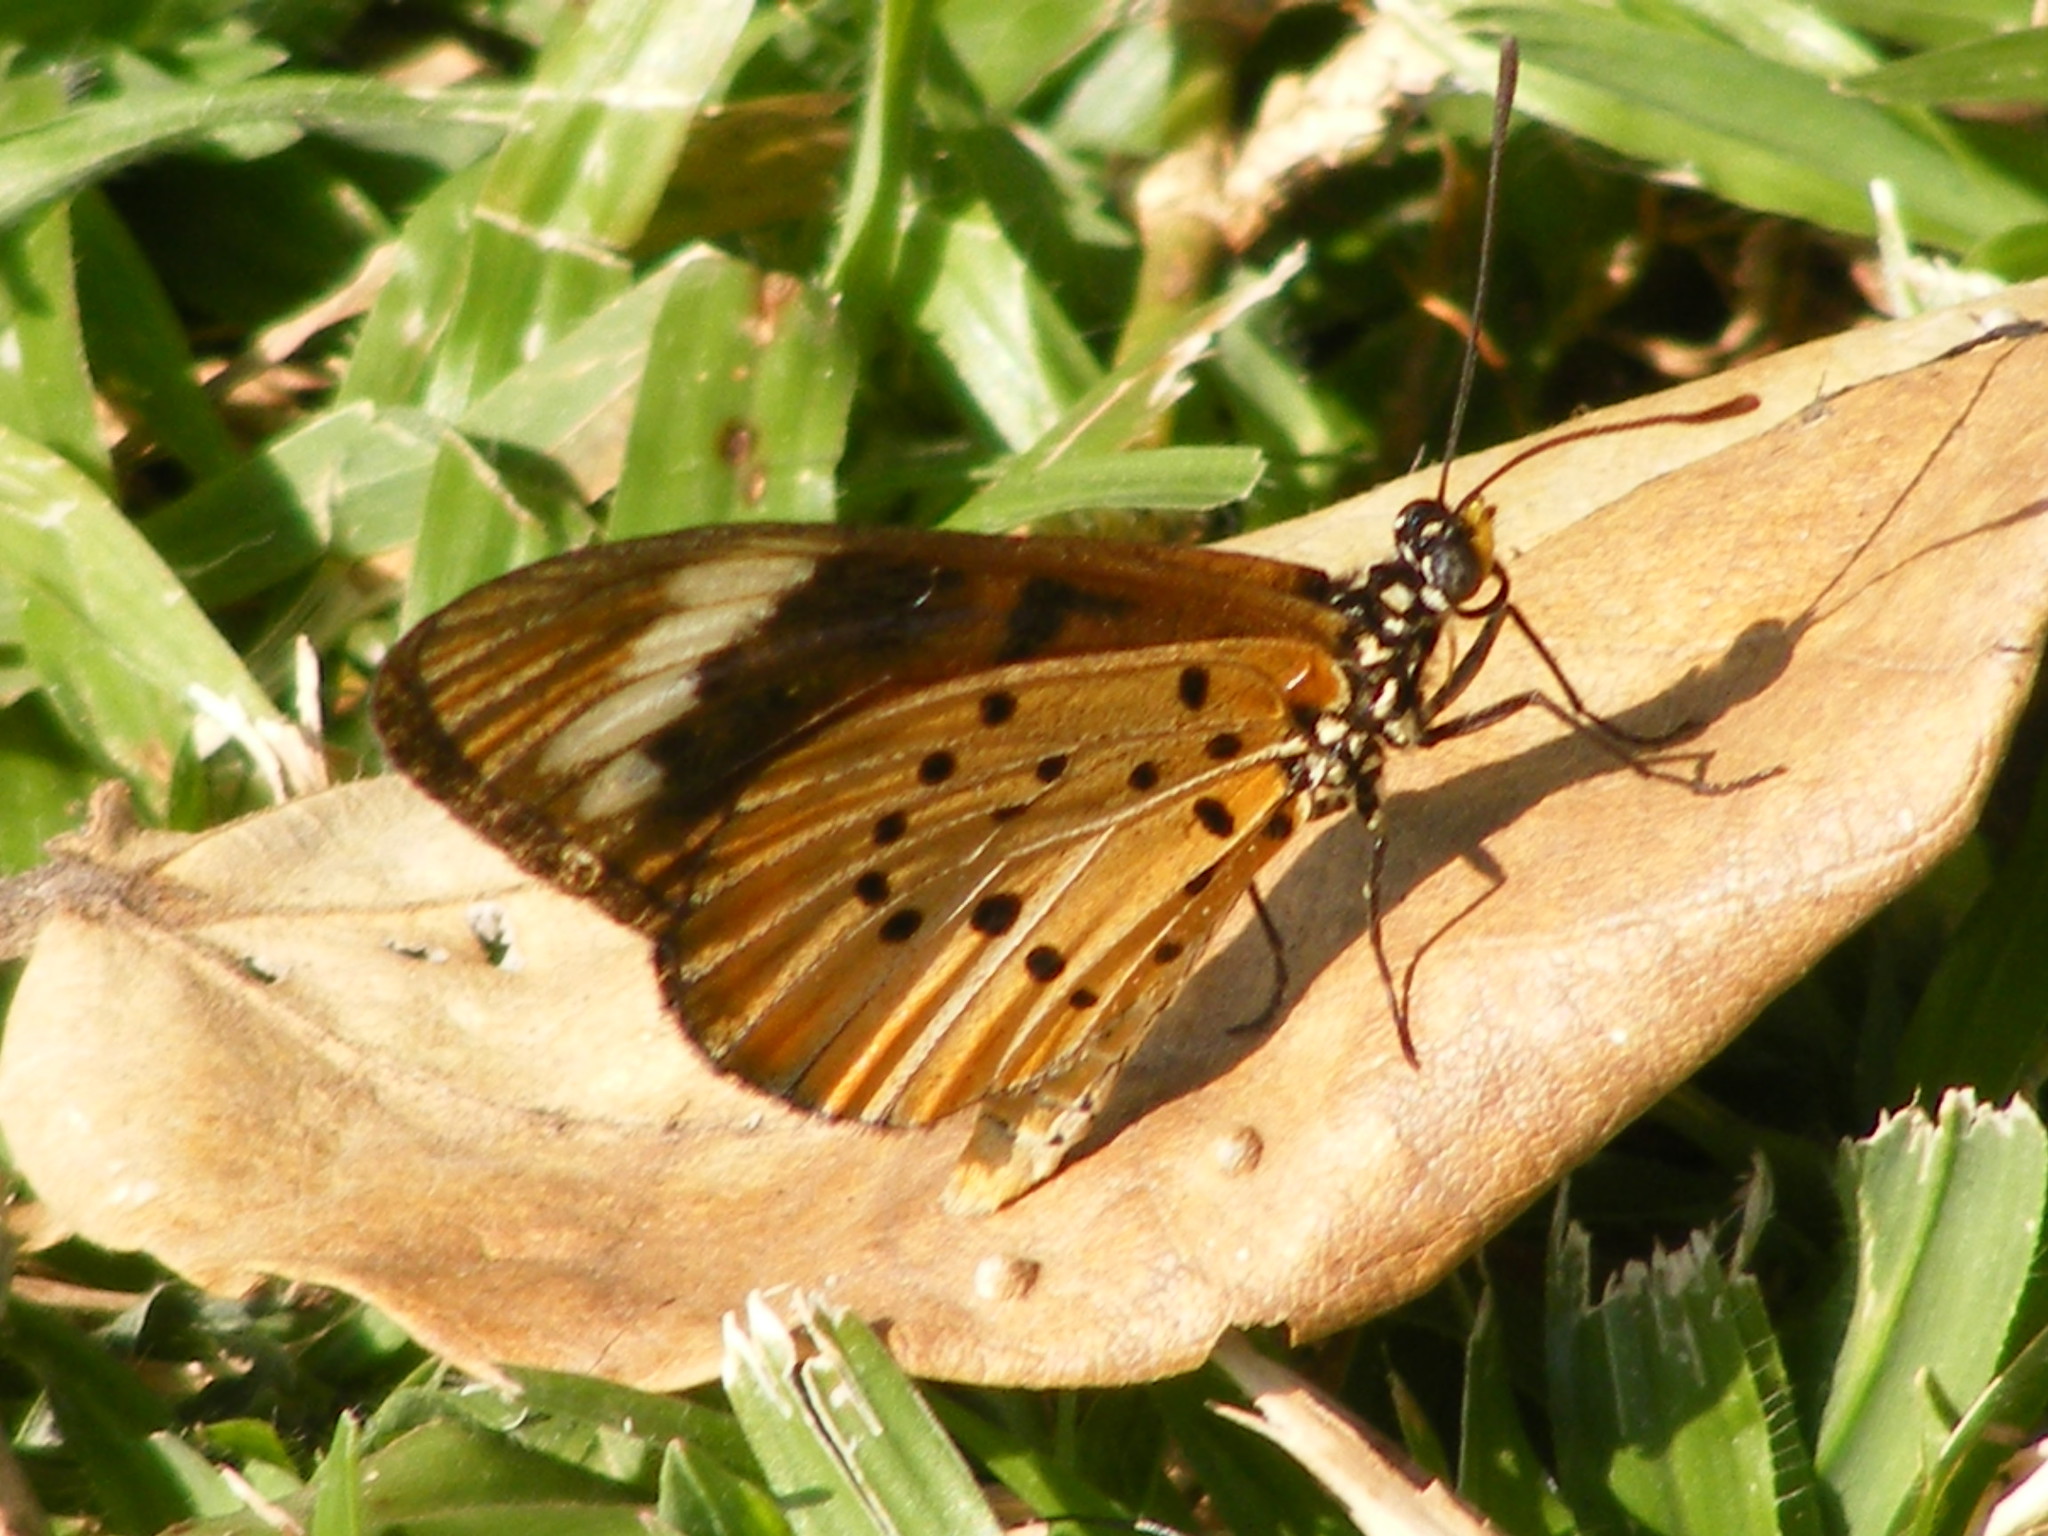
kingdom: Animalia
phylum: Arthropoda
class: Insecta
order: Lepidoptera
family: Nymphalidae
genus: Acraea
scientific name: Acraea Telchinia encedon
